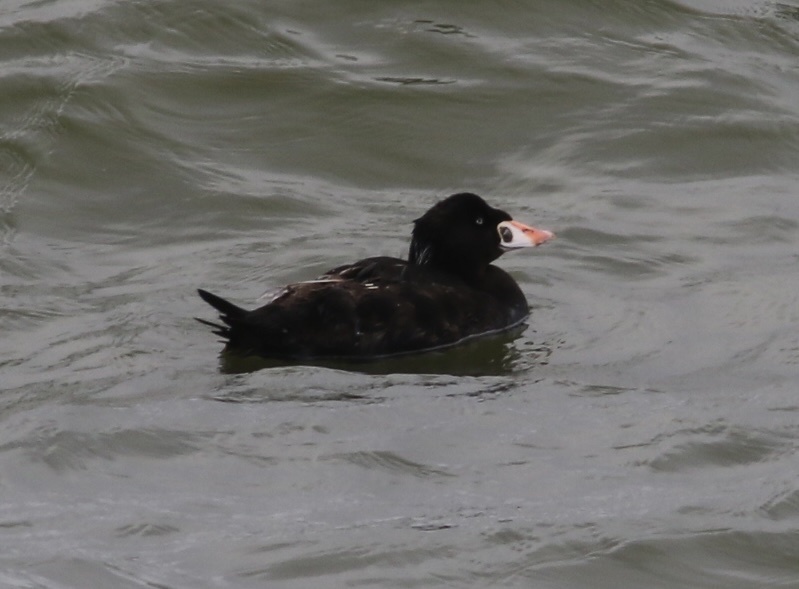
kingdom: Animalia
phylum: Chordata
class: Aves
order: Anseriformes
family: Anatidae
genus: Melanitta
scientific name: Melanitta perspicillata
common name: Surf scoter
